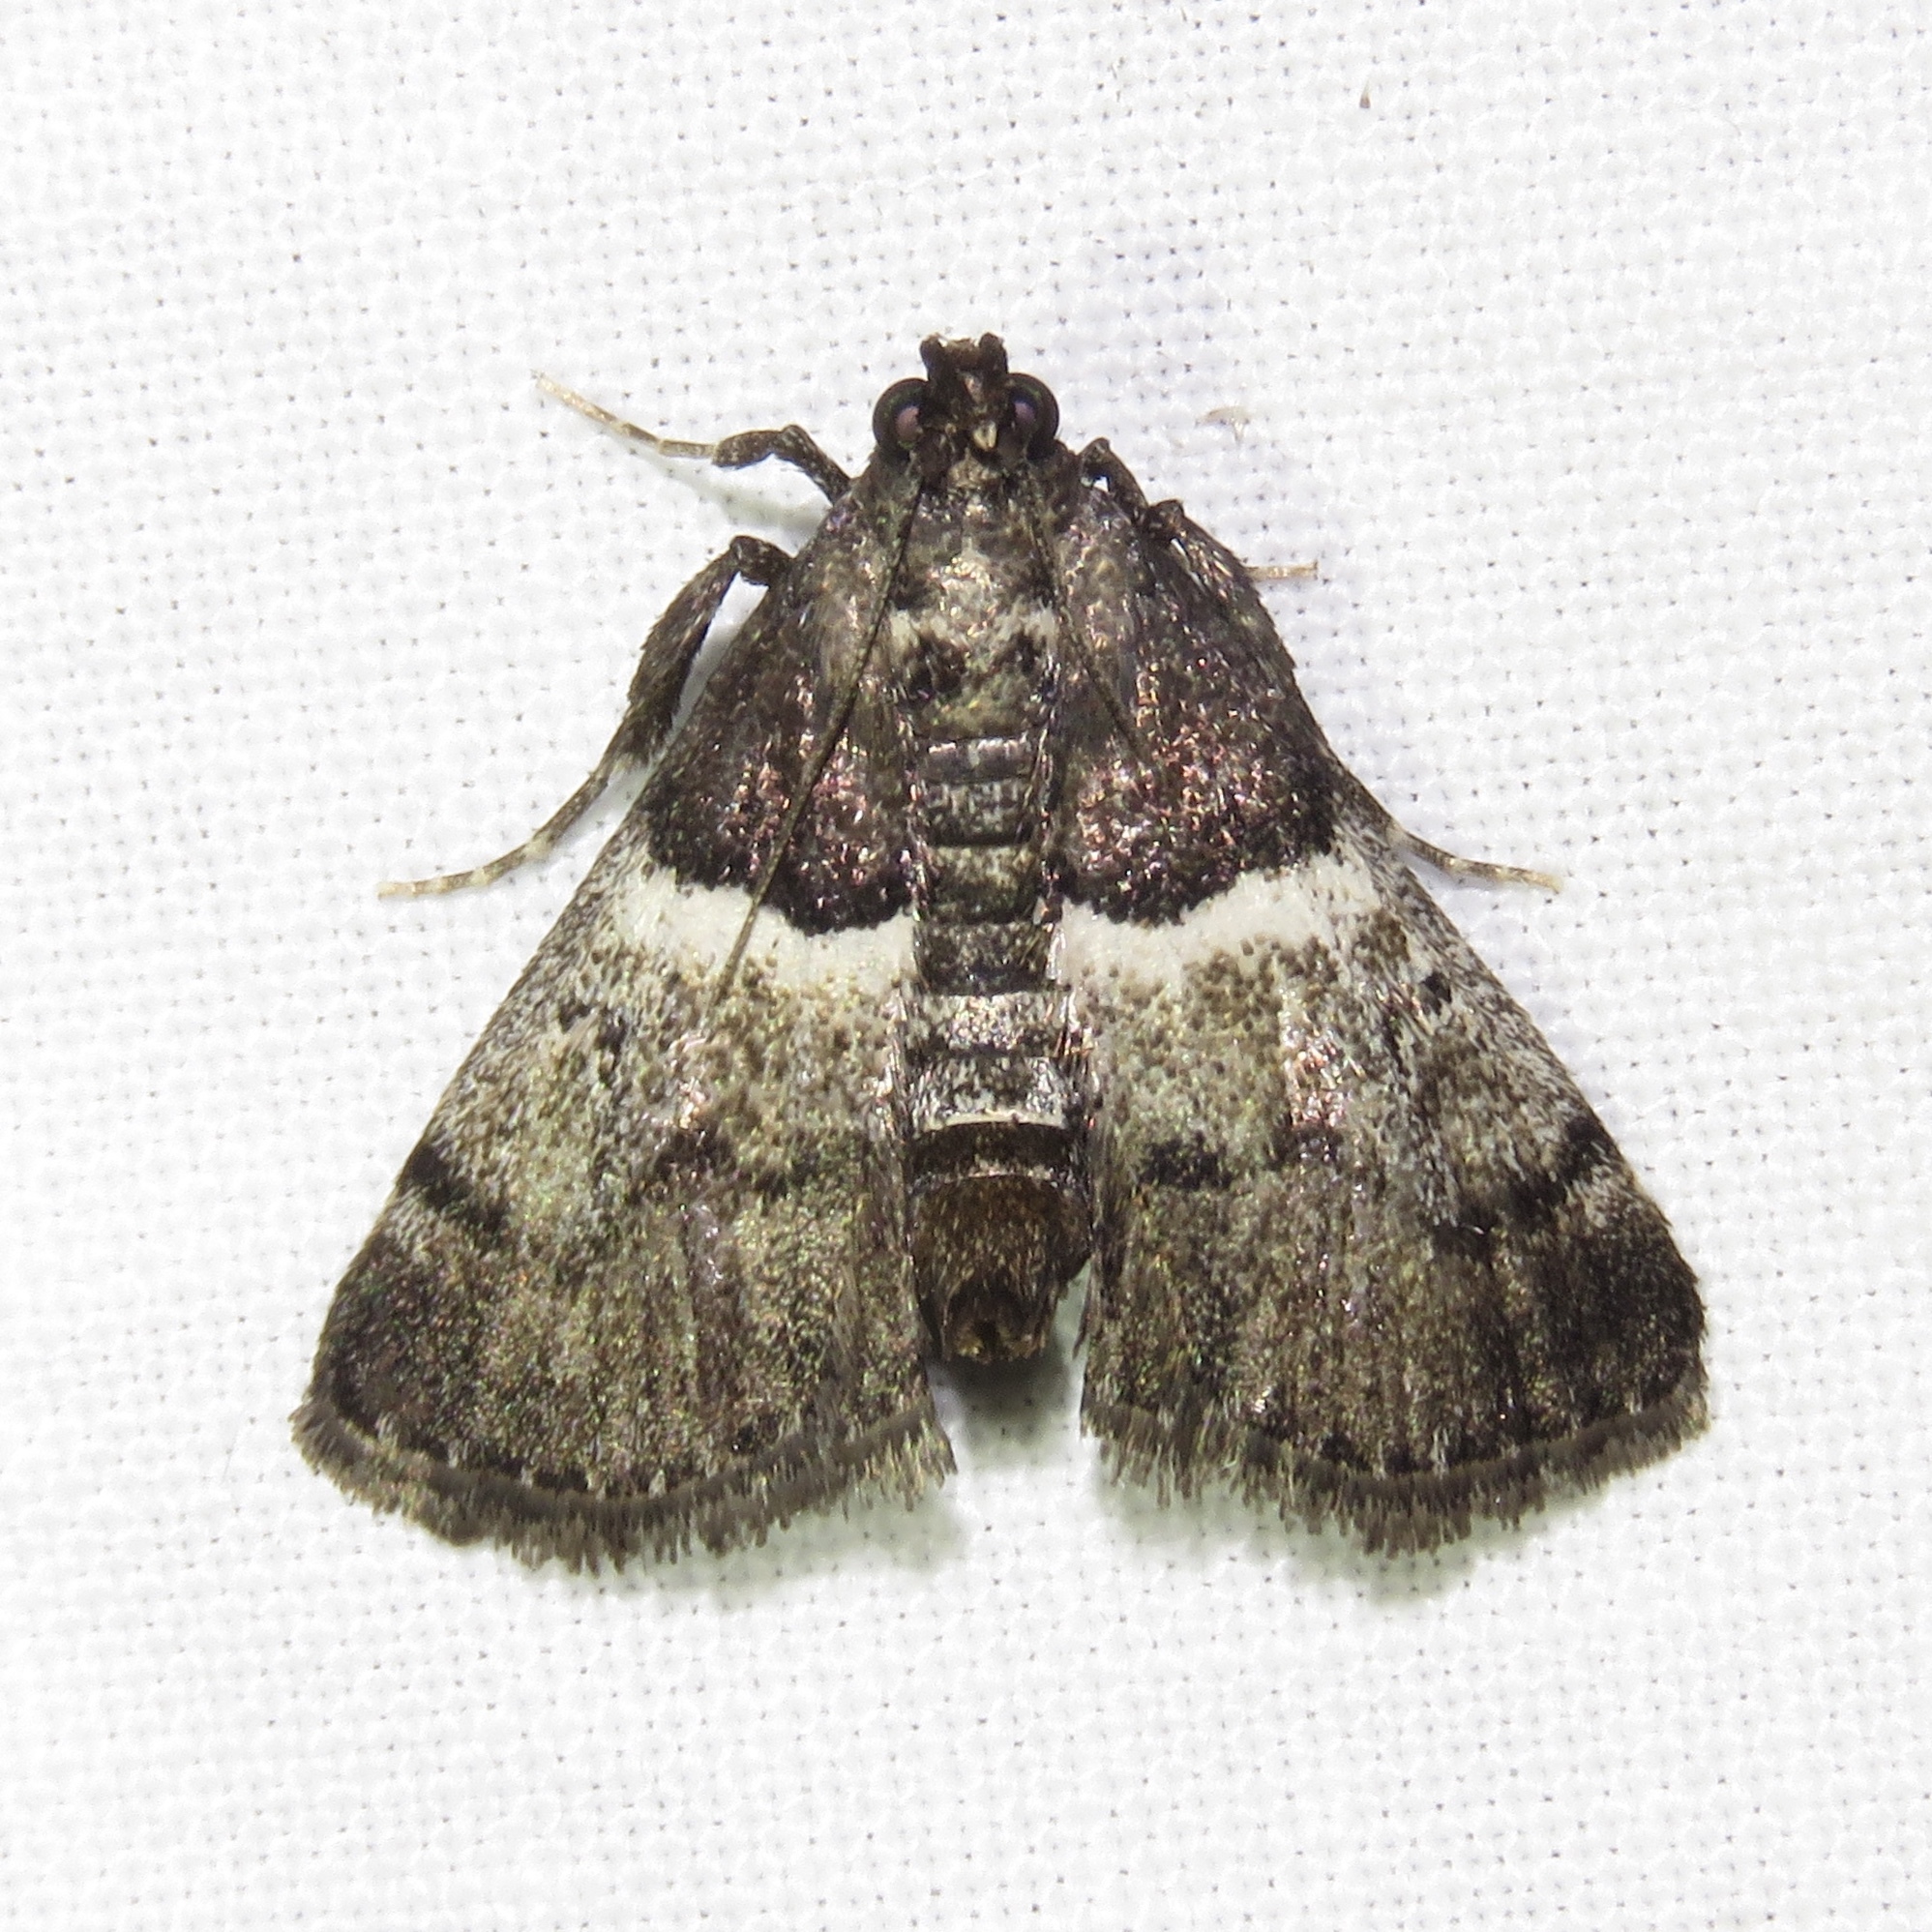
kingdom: Animalia
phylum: Arthropoda
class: Insecta
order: Lepidoptera
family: Pyralidae
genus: Macalla
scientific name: Macalla zelleri
